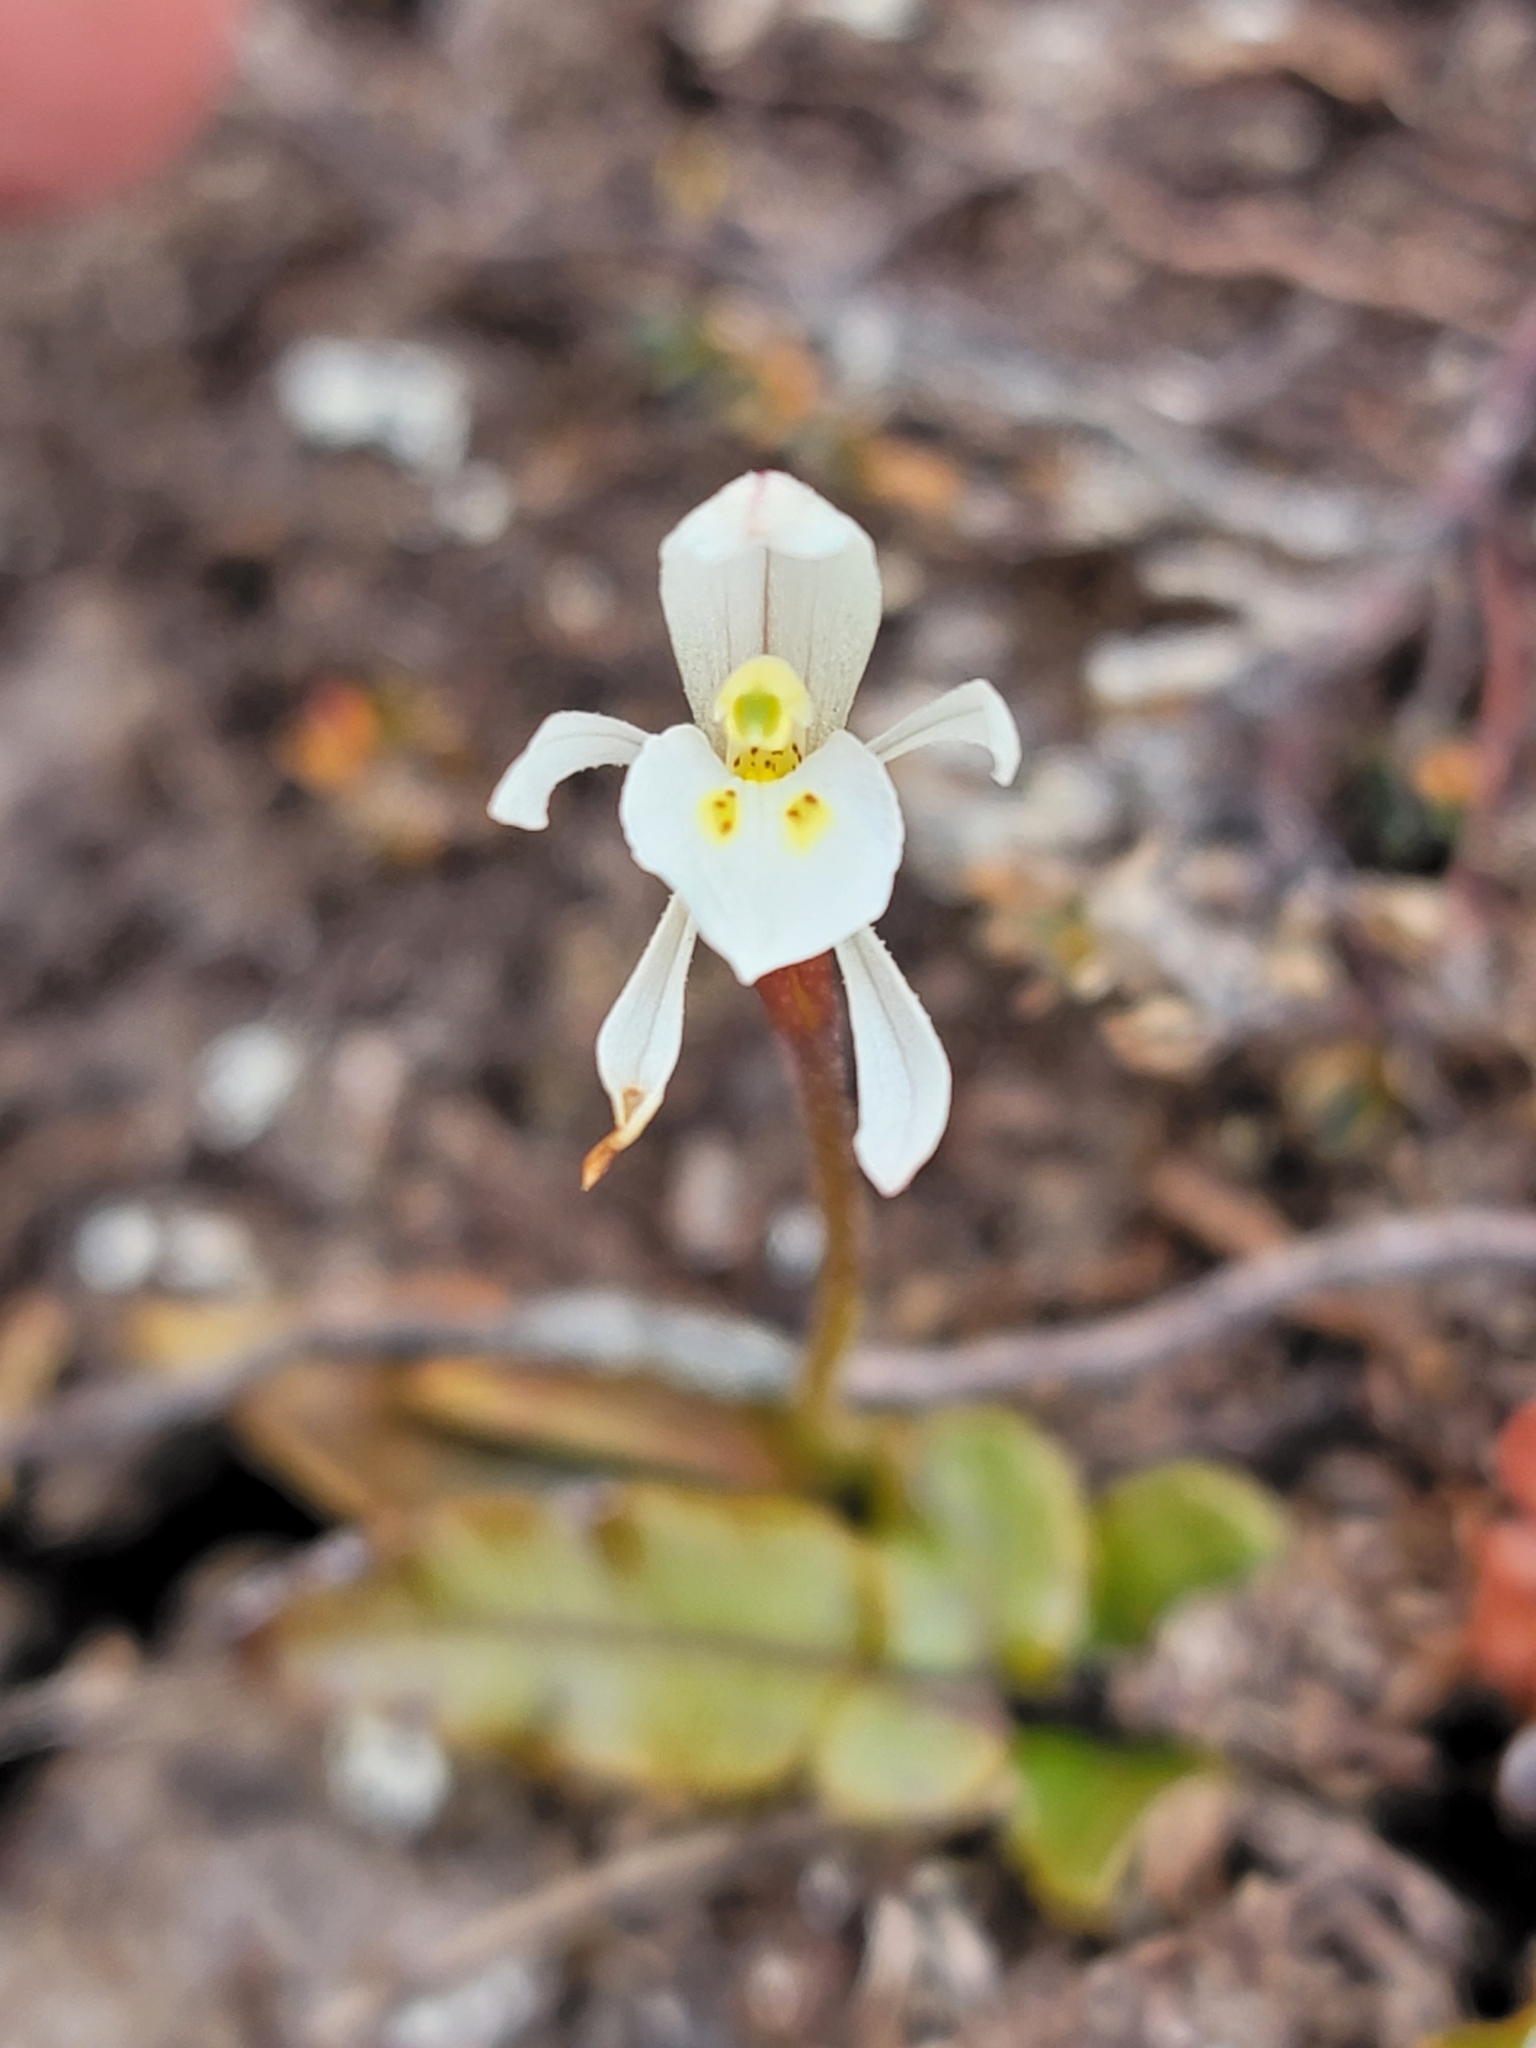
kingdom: Plantae
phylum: Tracheophyta
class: Liliopsida
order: Asparagales
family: Orchidaceae
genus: Aporostylis
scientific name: Aporostylis bifolia
